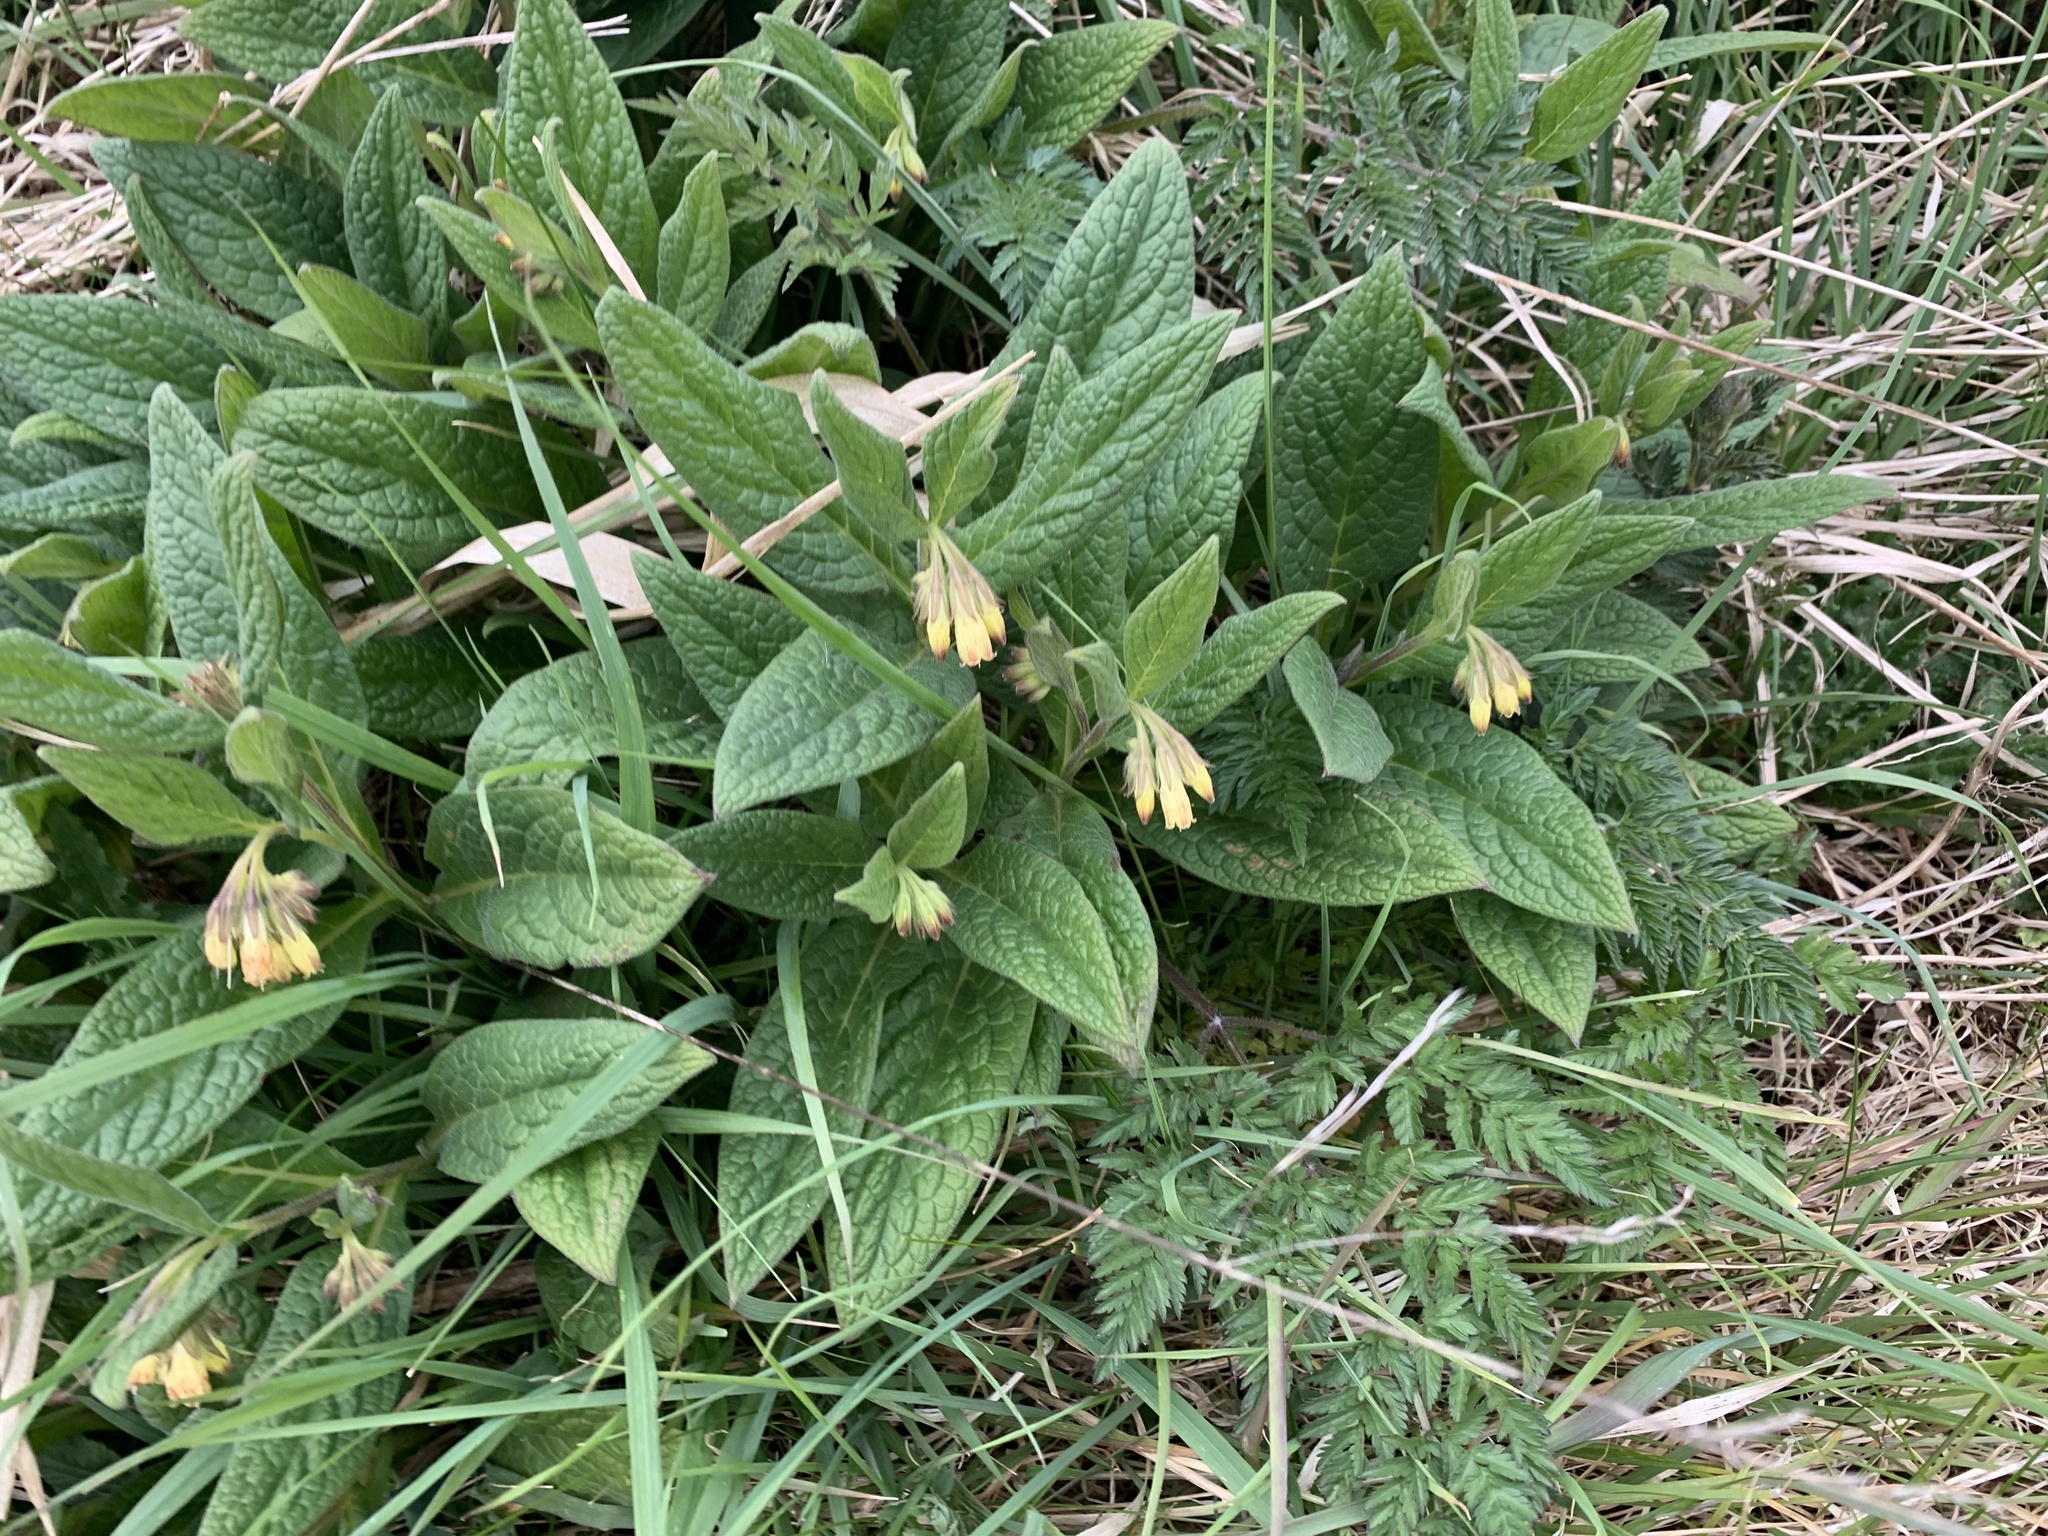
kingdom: Plantae
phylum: Tracheophyta
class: Magnoliopsida
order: Boraginales
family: Boraginaceae
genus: Symphytum
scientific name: Symphytum tuberosum
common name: Tuberous comfrey
